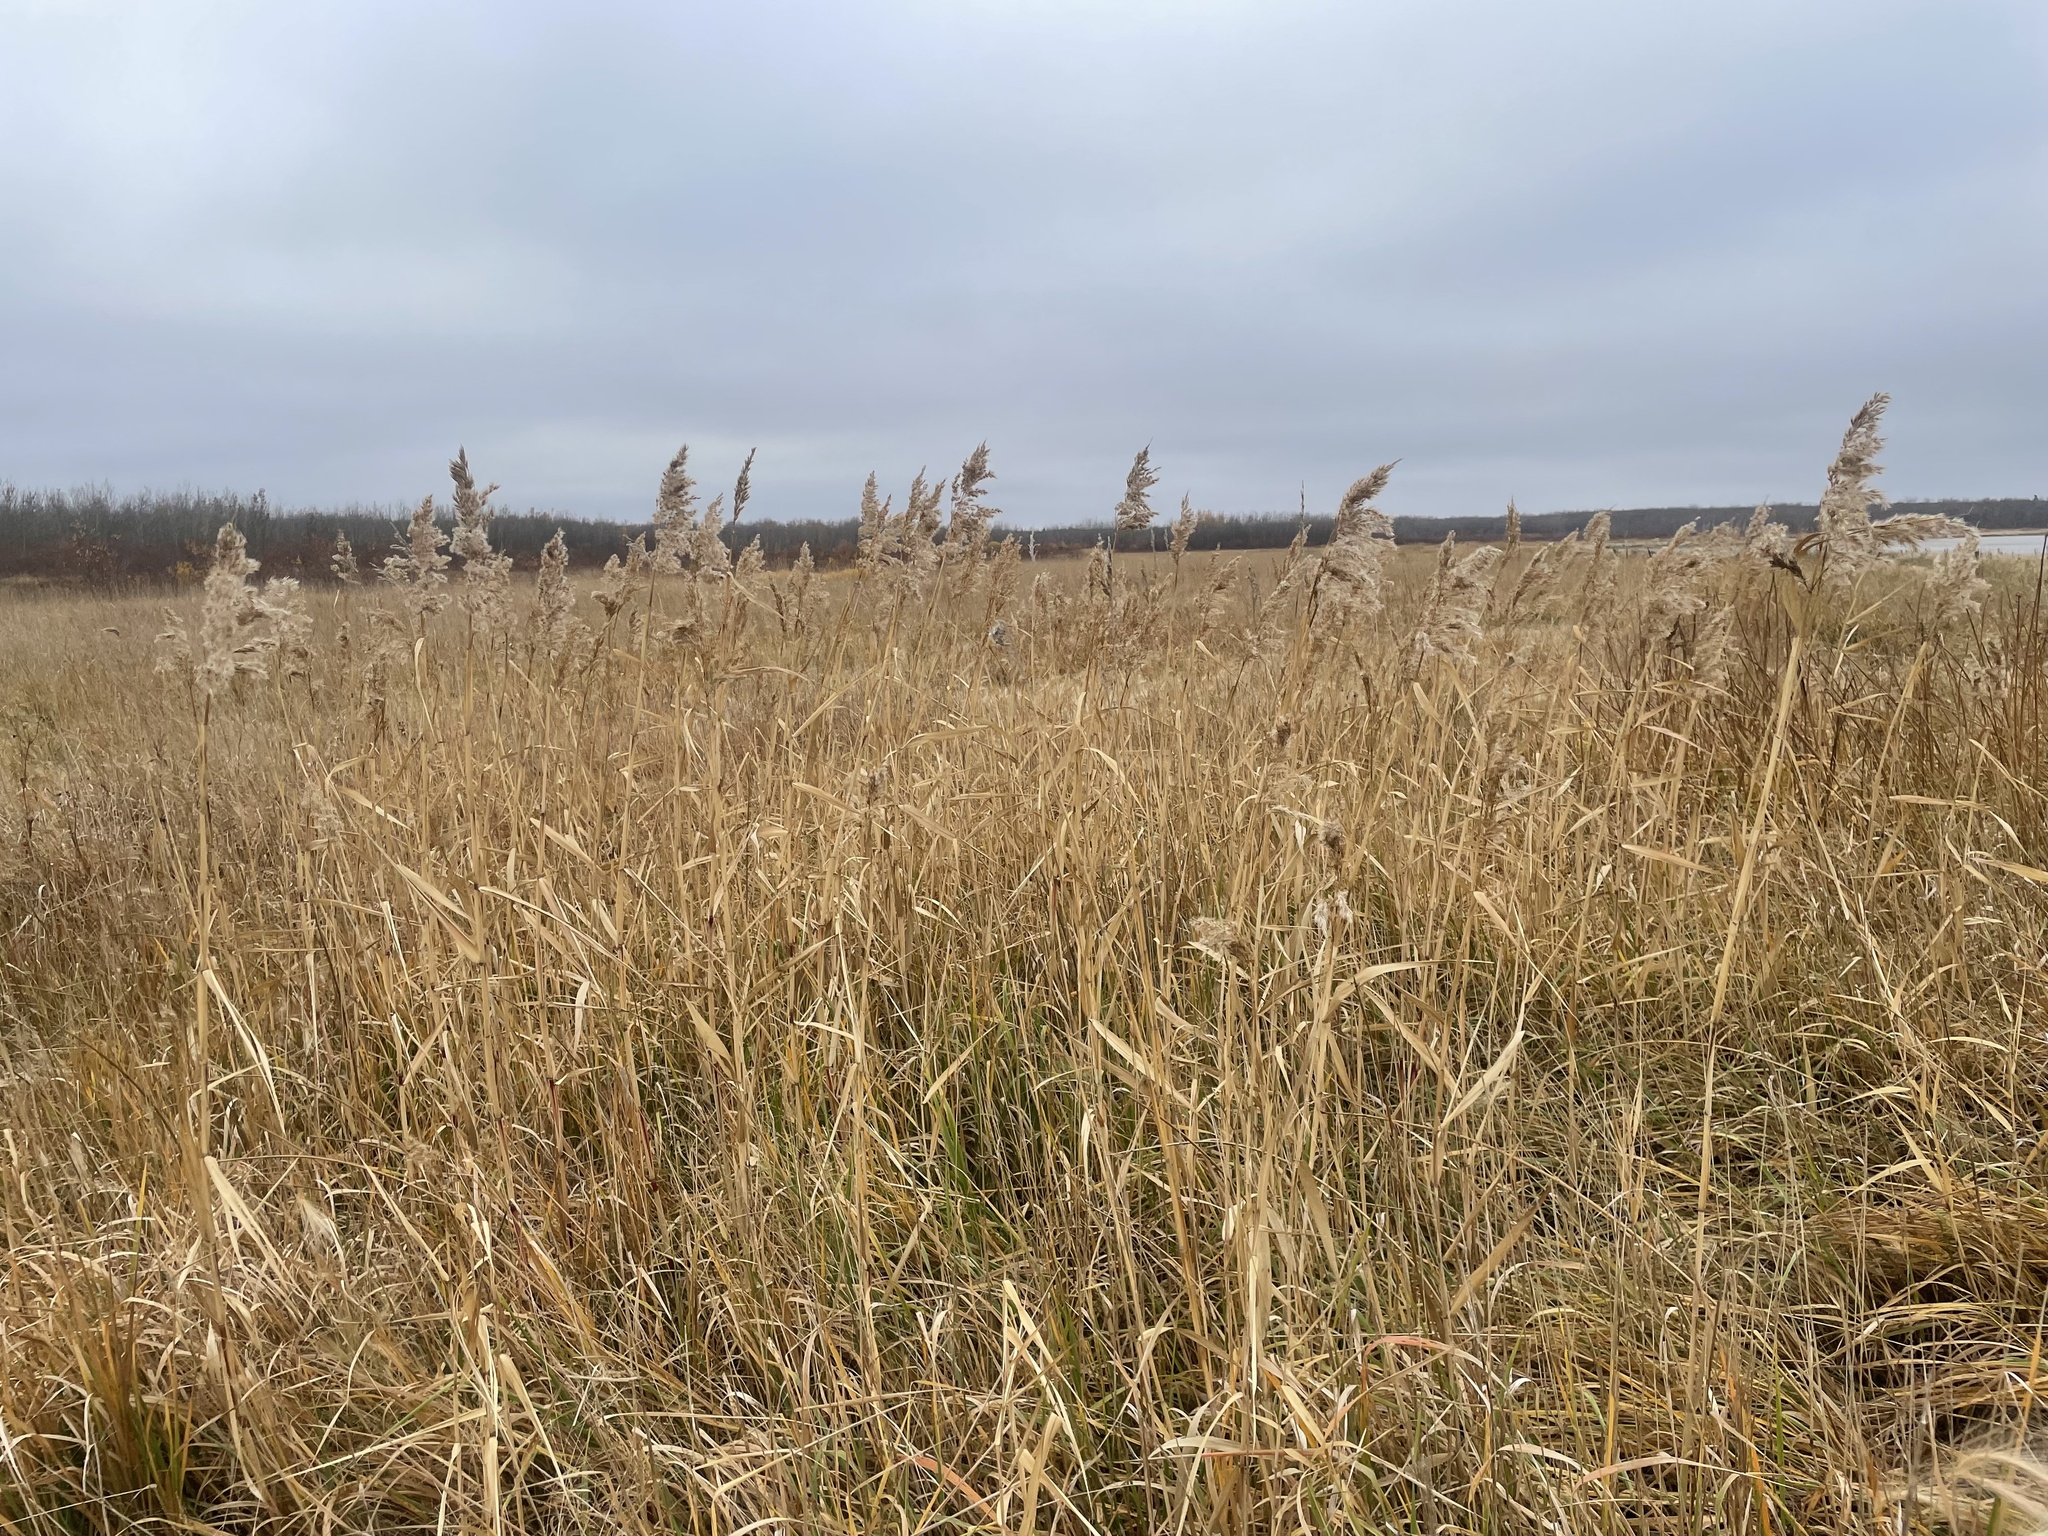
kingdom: Plantae
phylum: Tracheophyta
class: Liliopsida
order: Poales
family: Poaceae
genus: Phragmites
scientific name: Phragmites australis
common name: Common reed
